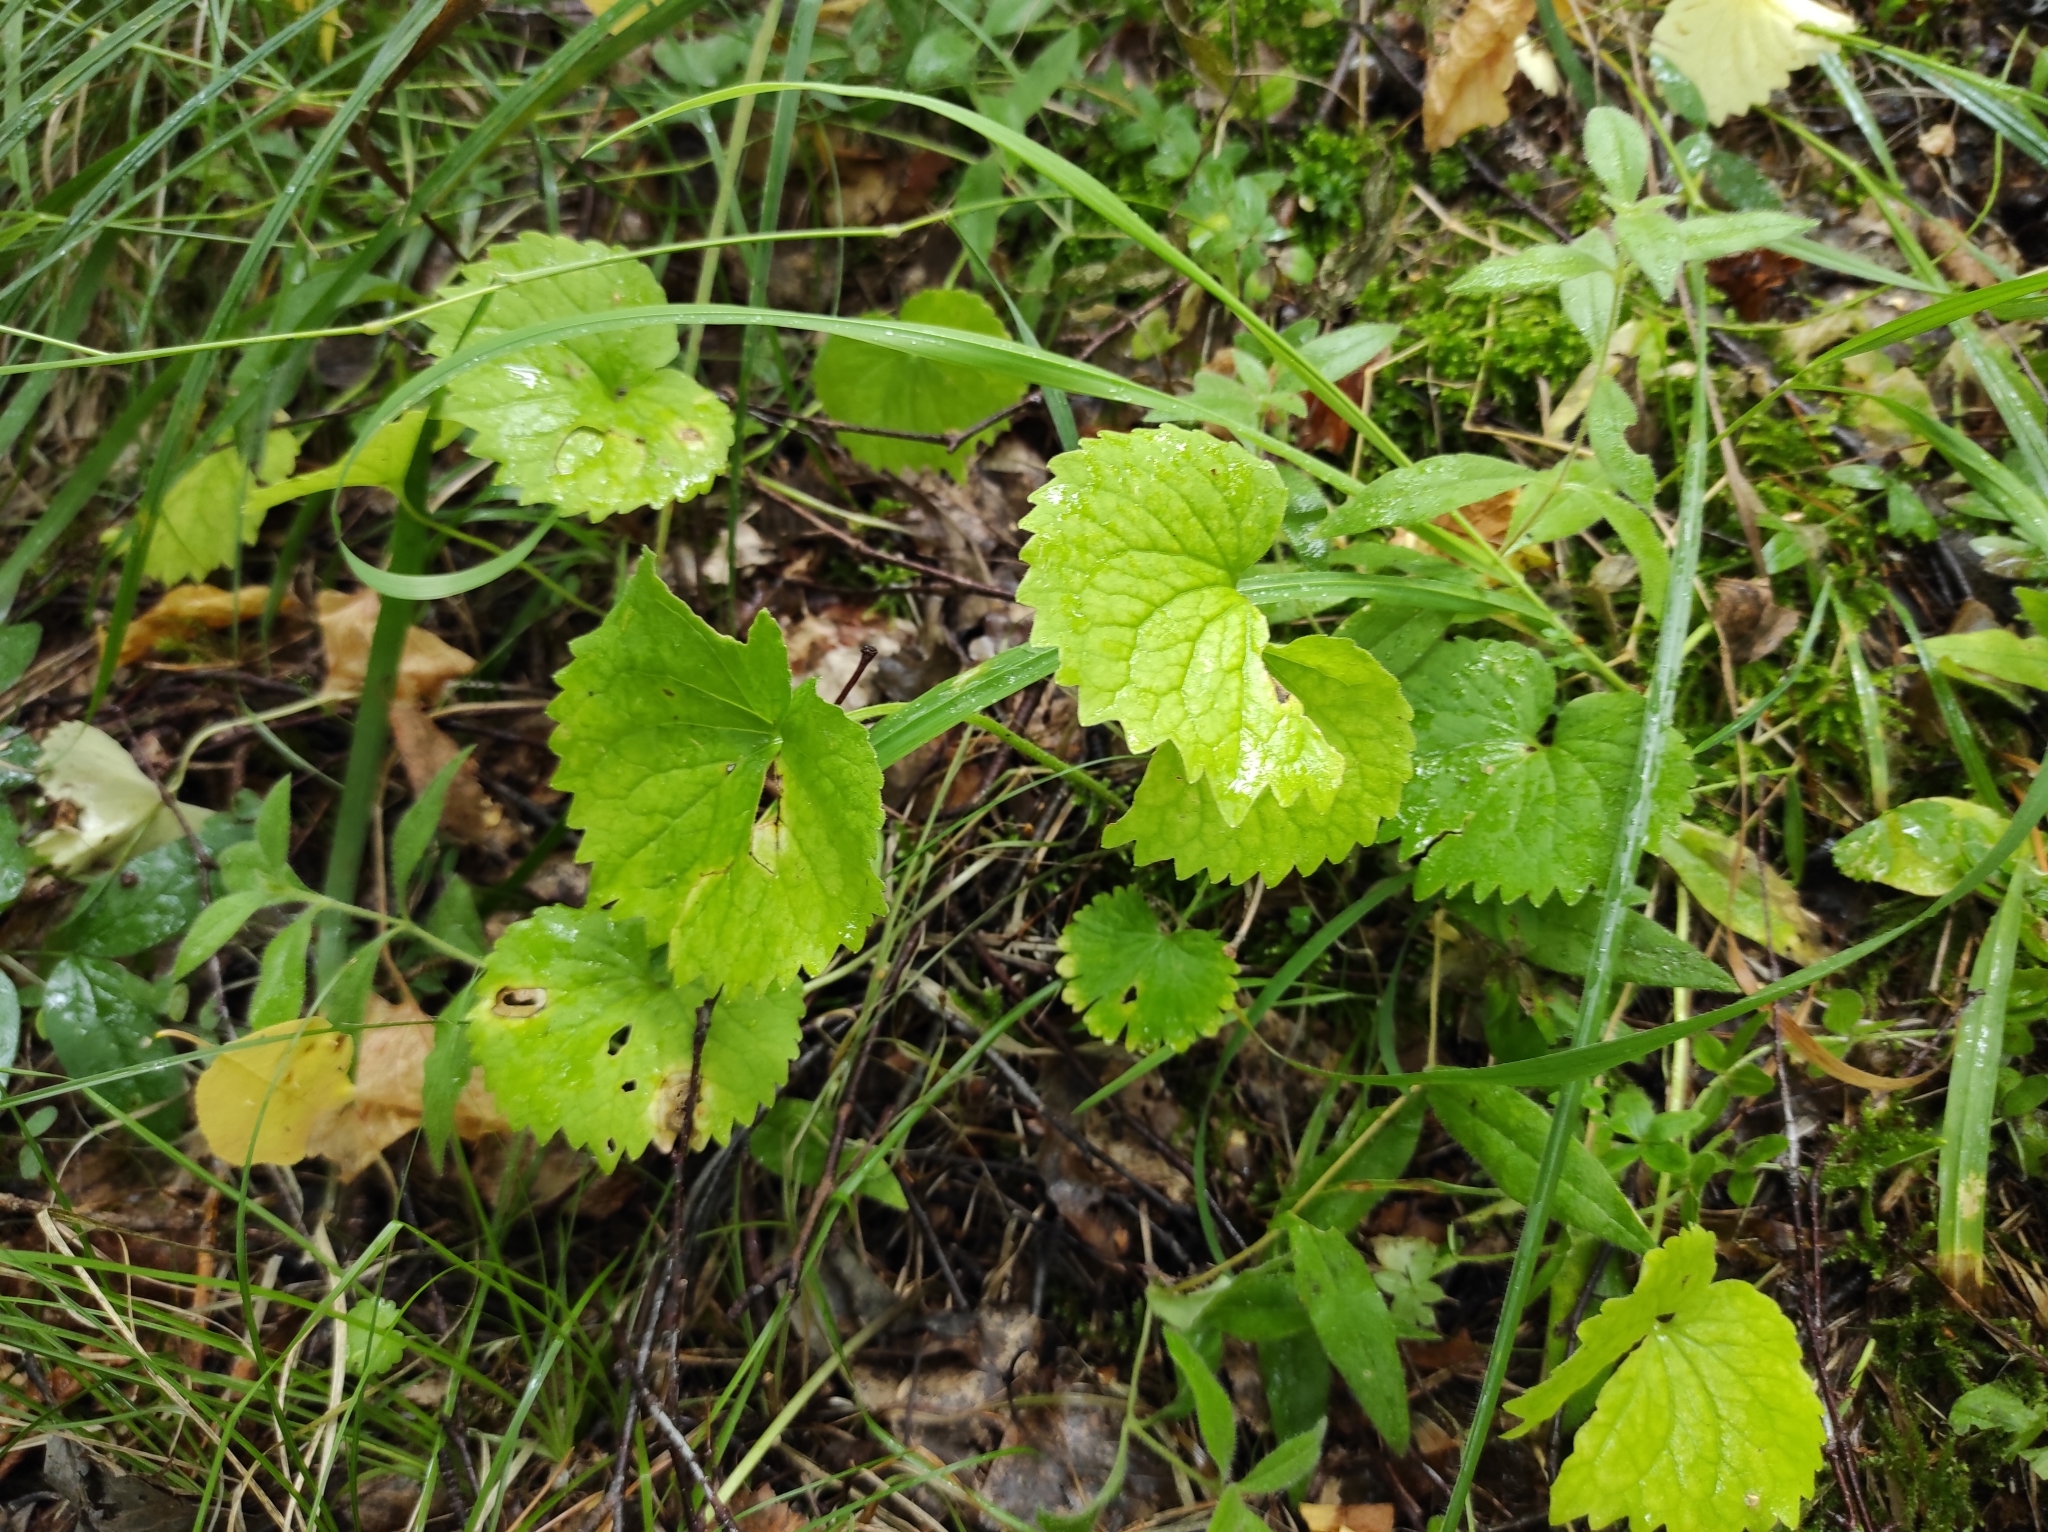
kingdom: Plantae
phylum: Tracheophyta
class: Magnoliopsida
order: Malpighiales
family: Violaceae
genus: Viola
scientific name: Viola uniflora
